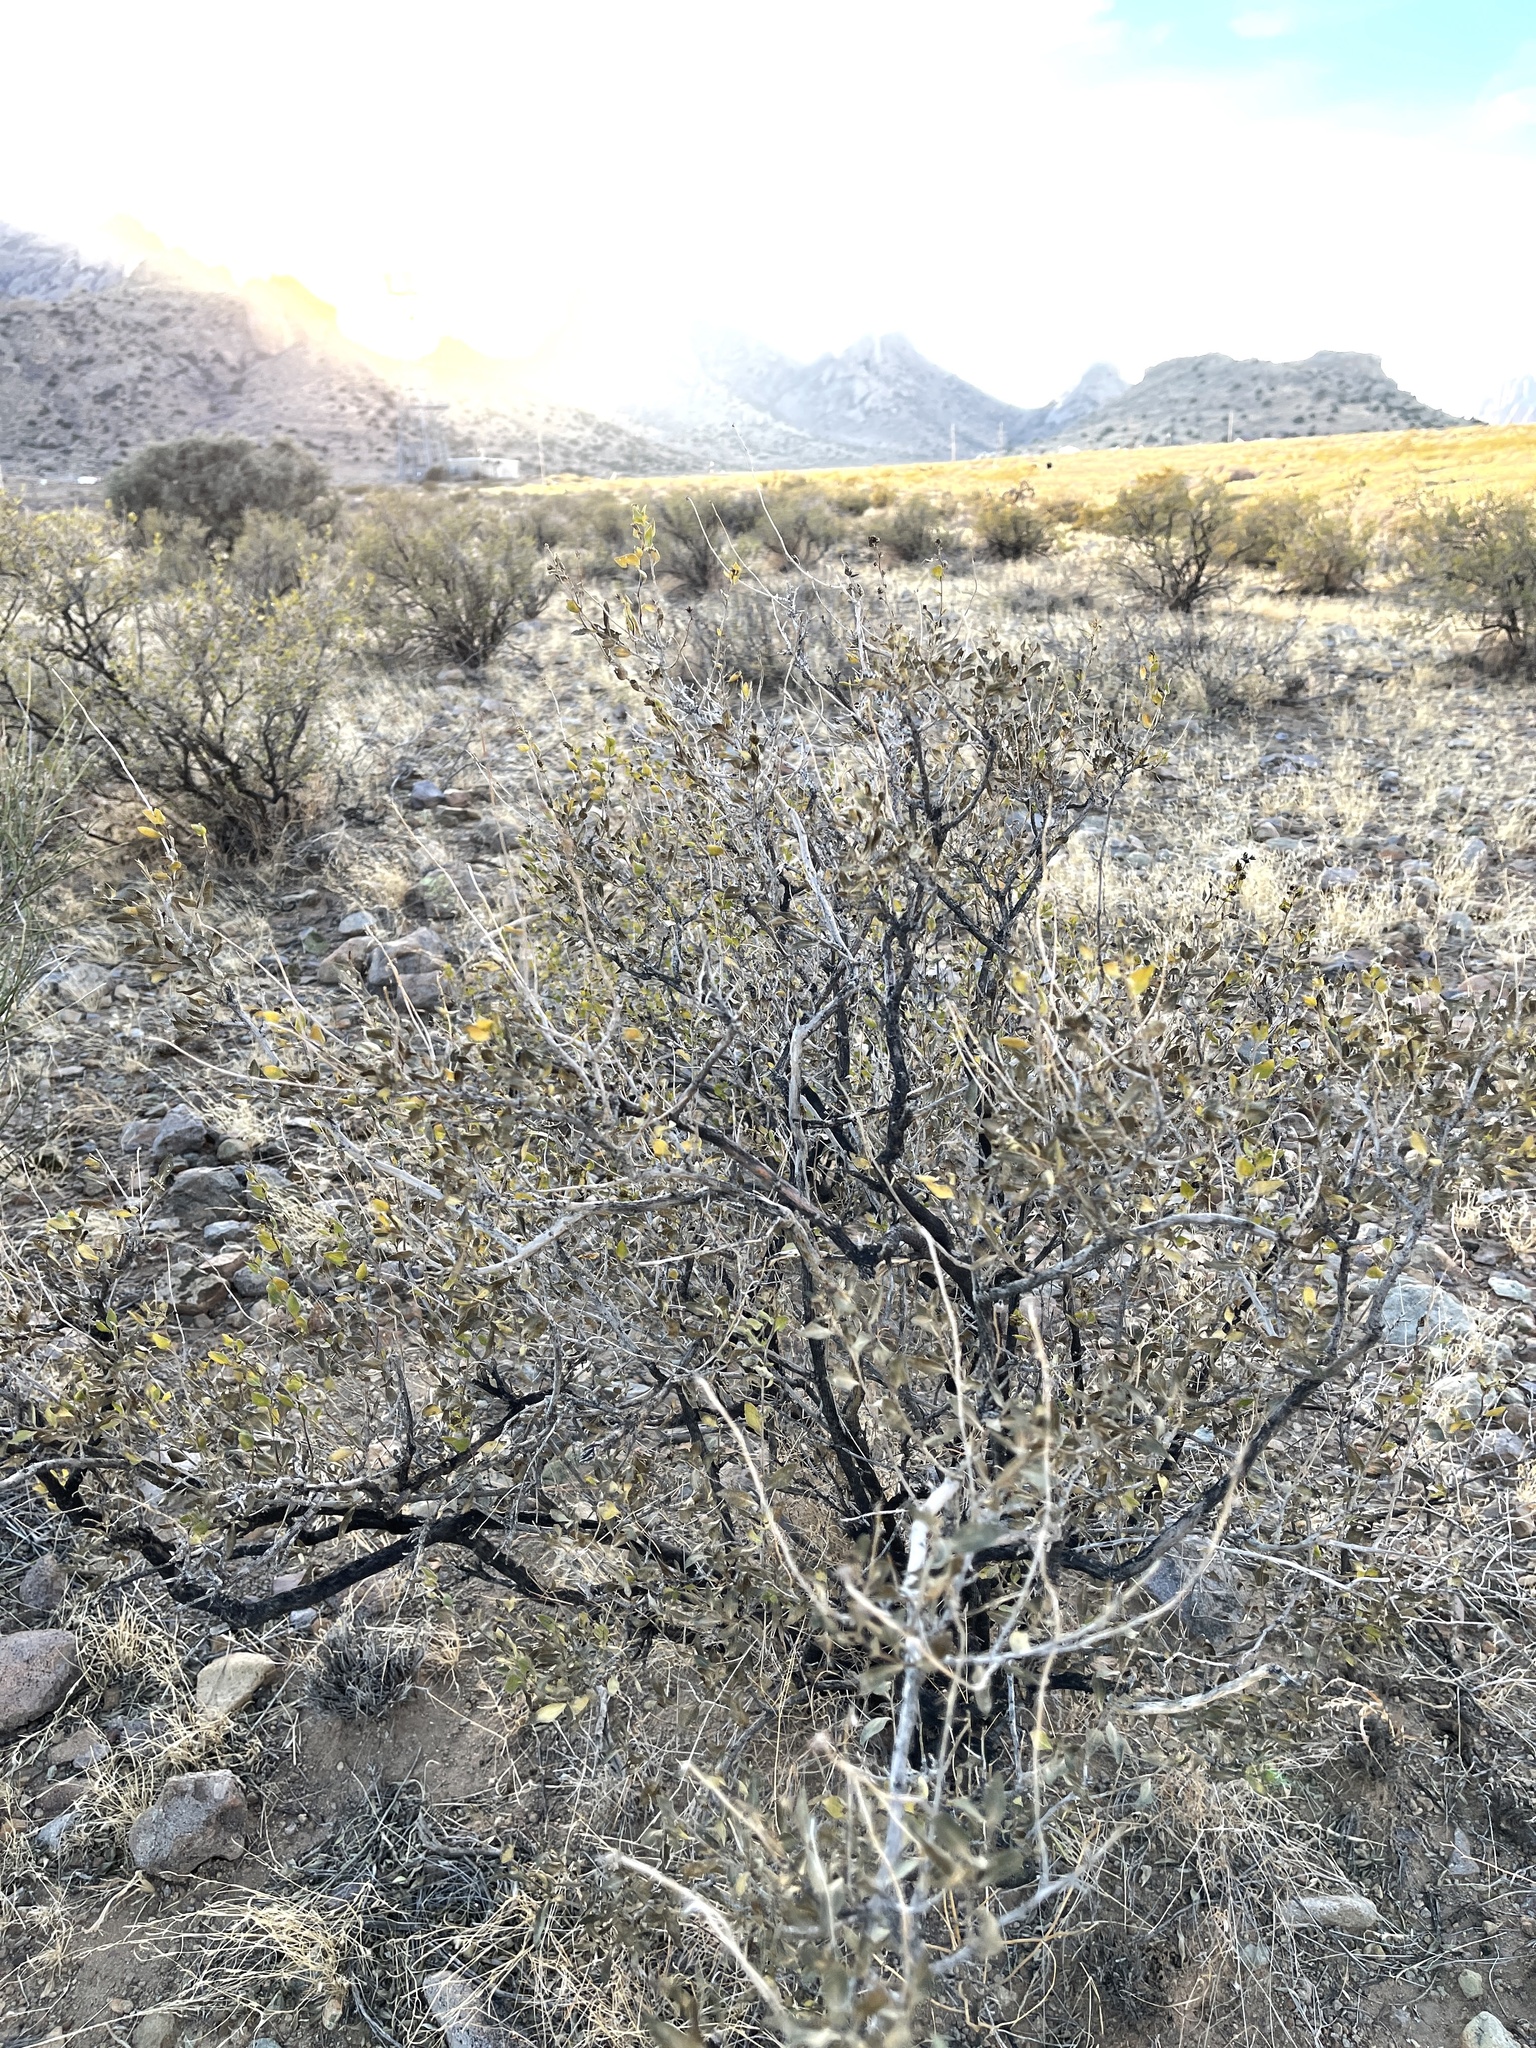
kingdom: Plantae
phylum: Tracheophyta
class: Magnoliopsida
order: Asterales
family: Asteraceae
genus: Flourensia
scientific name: Flourensia cernua
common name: Varnishbush
